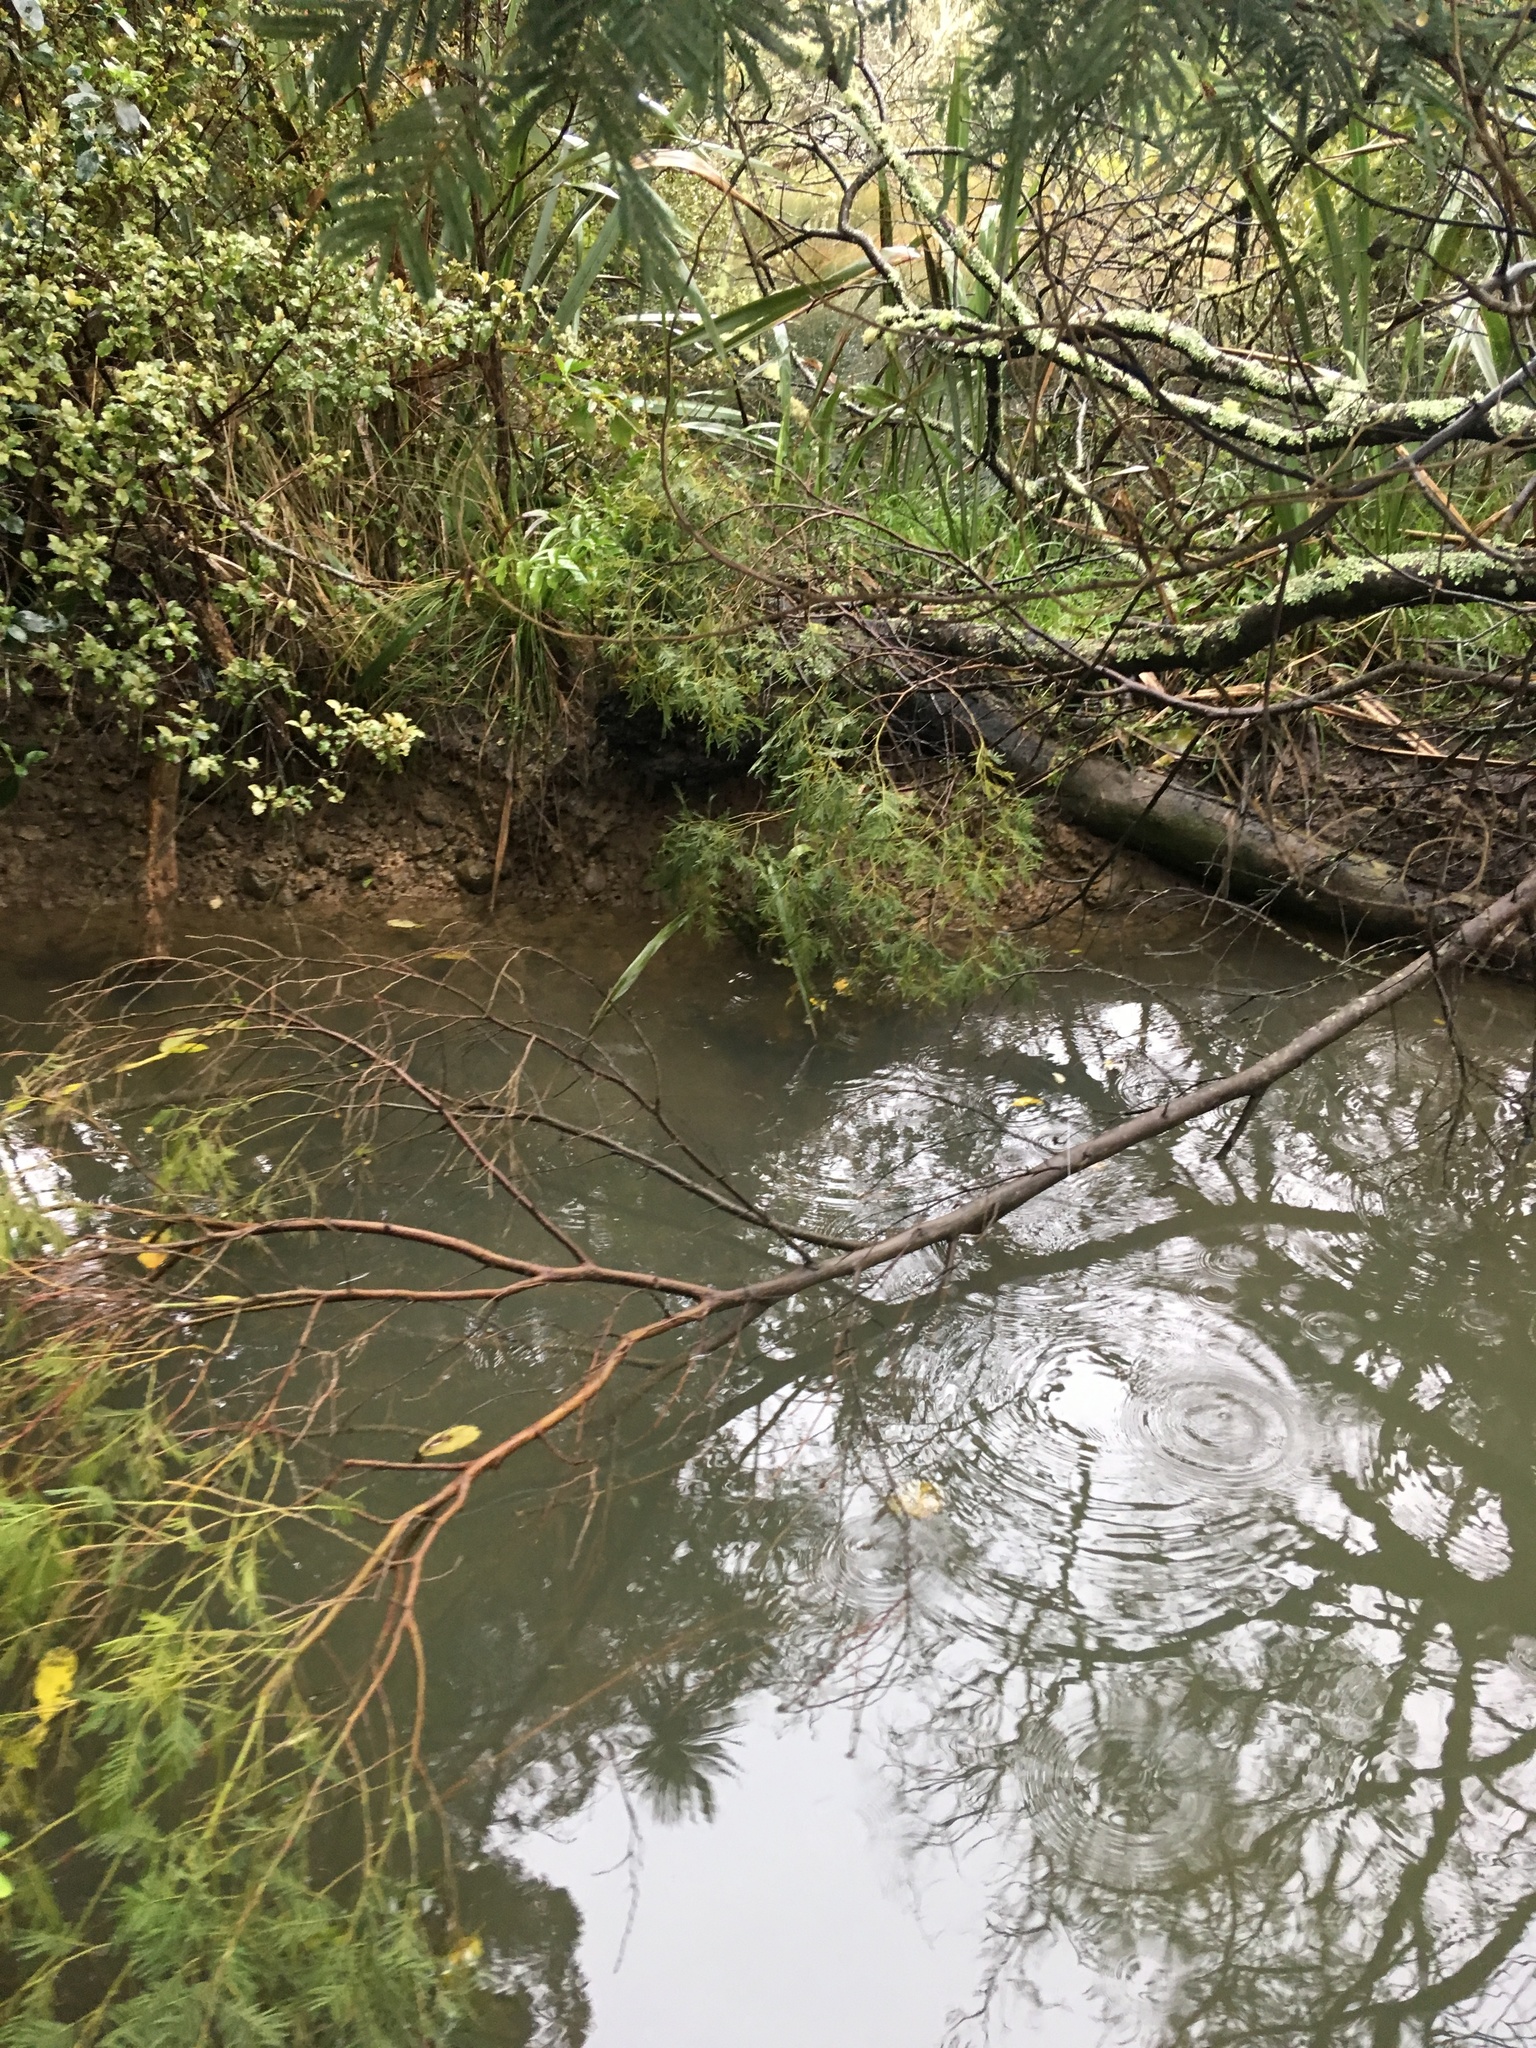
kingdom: Plantae
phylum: Tracheophyta
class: Magnoliopsida
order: Saxifragales
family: Haloragaceae
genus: Haloragis
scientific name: Haloragis erecta
